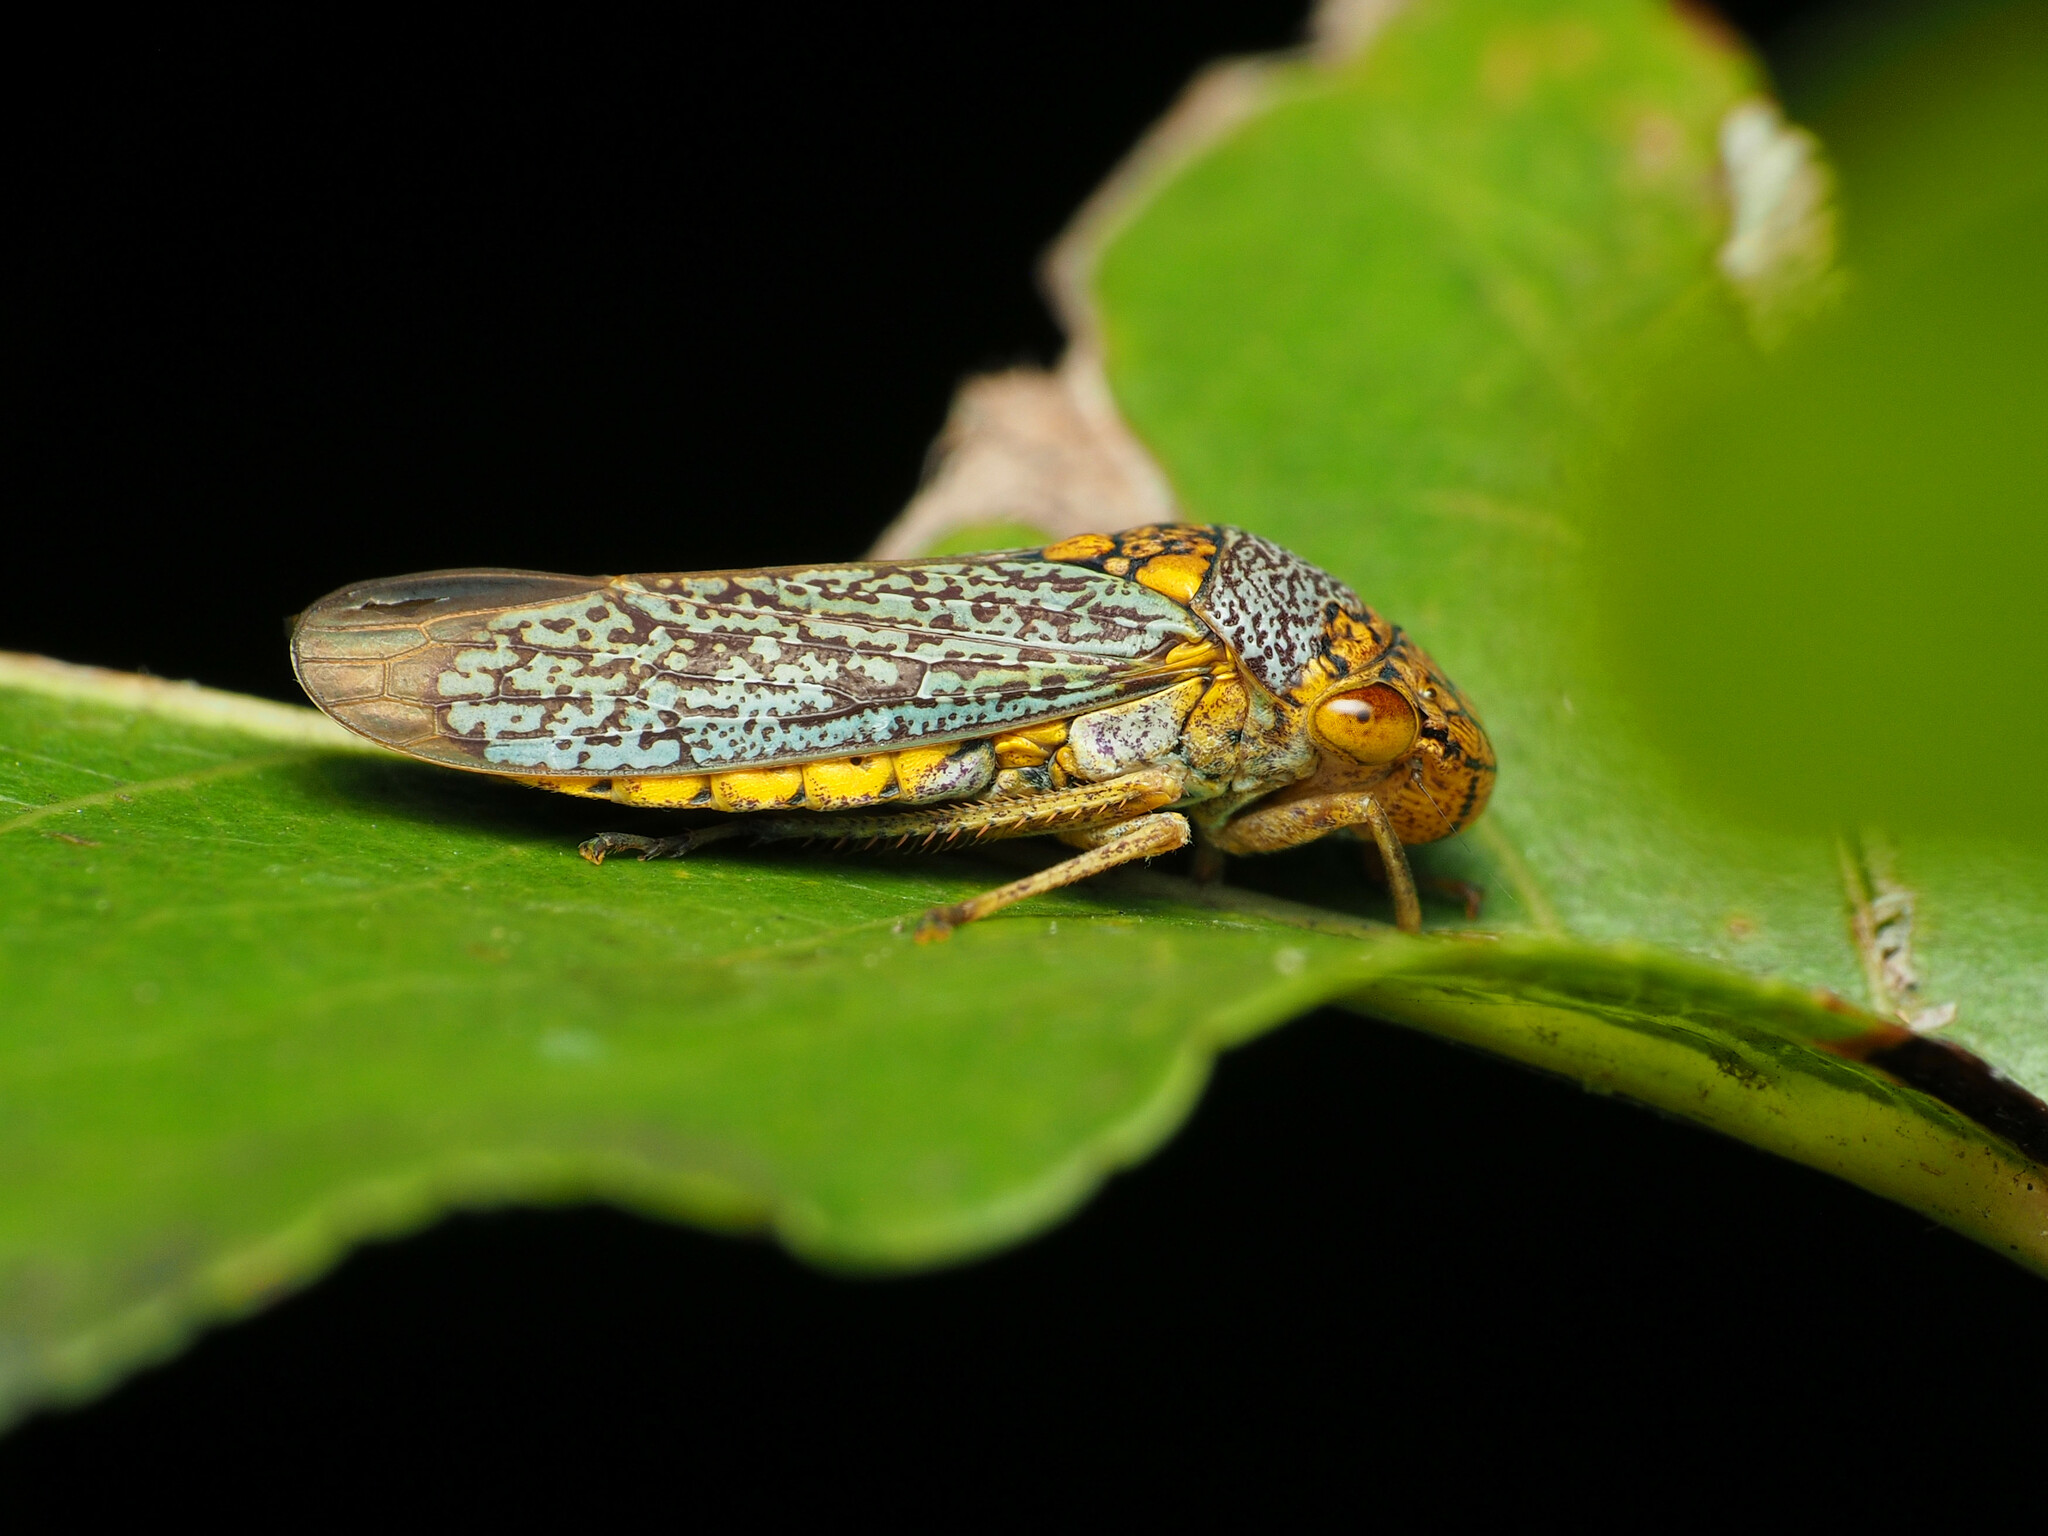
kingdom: Animalia
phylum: Arthropoda
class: Insecta
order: Hemiptera
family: Cicadellidae
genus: Oncometopia
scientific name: Oncometopia orbona
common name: Broad-headed sharpshooter
